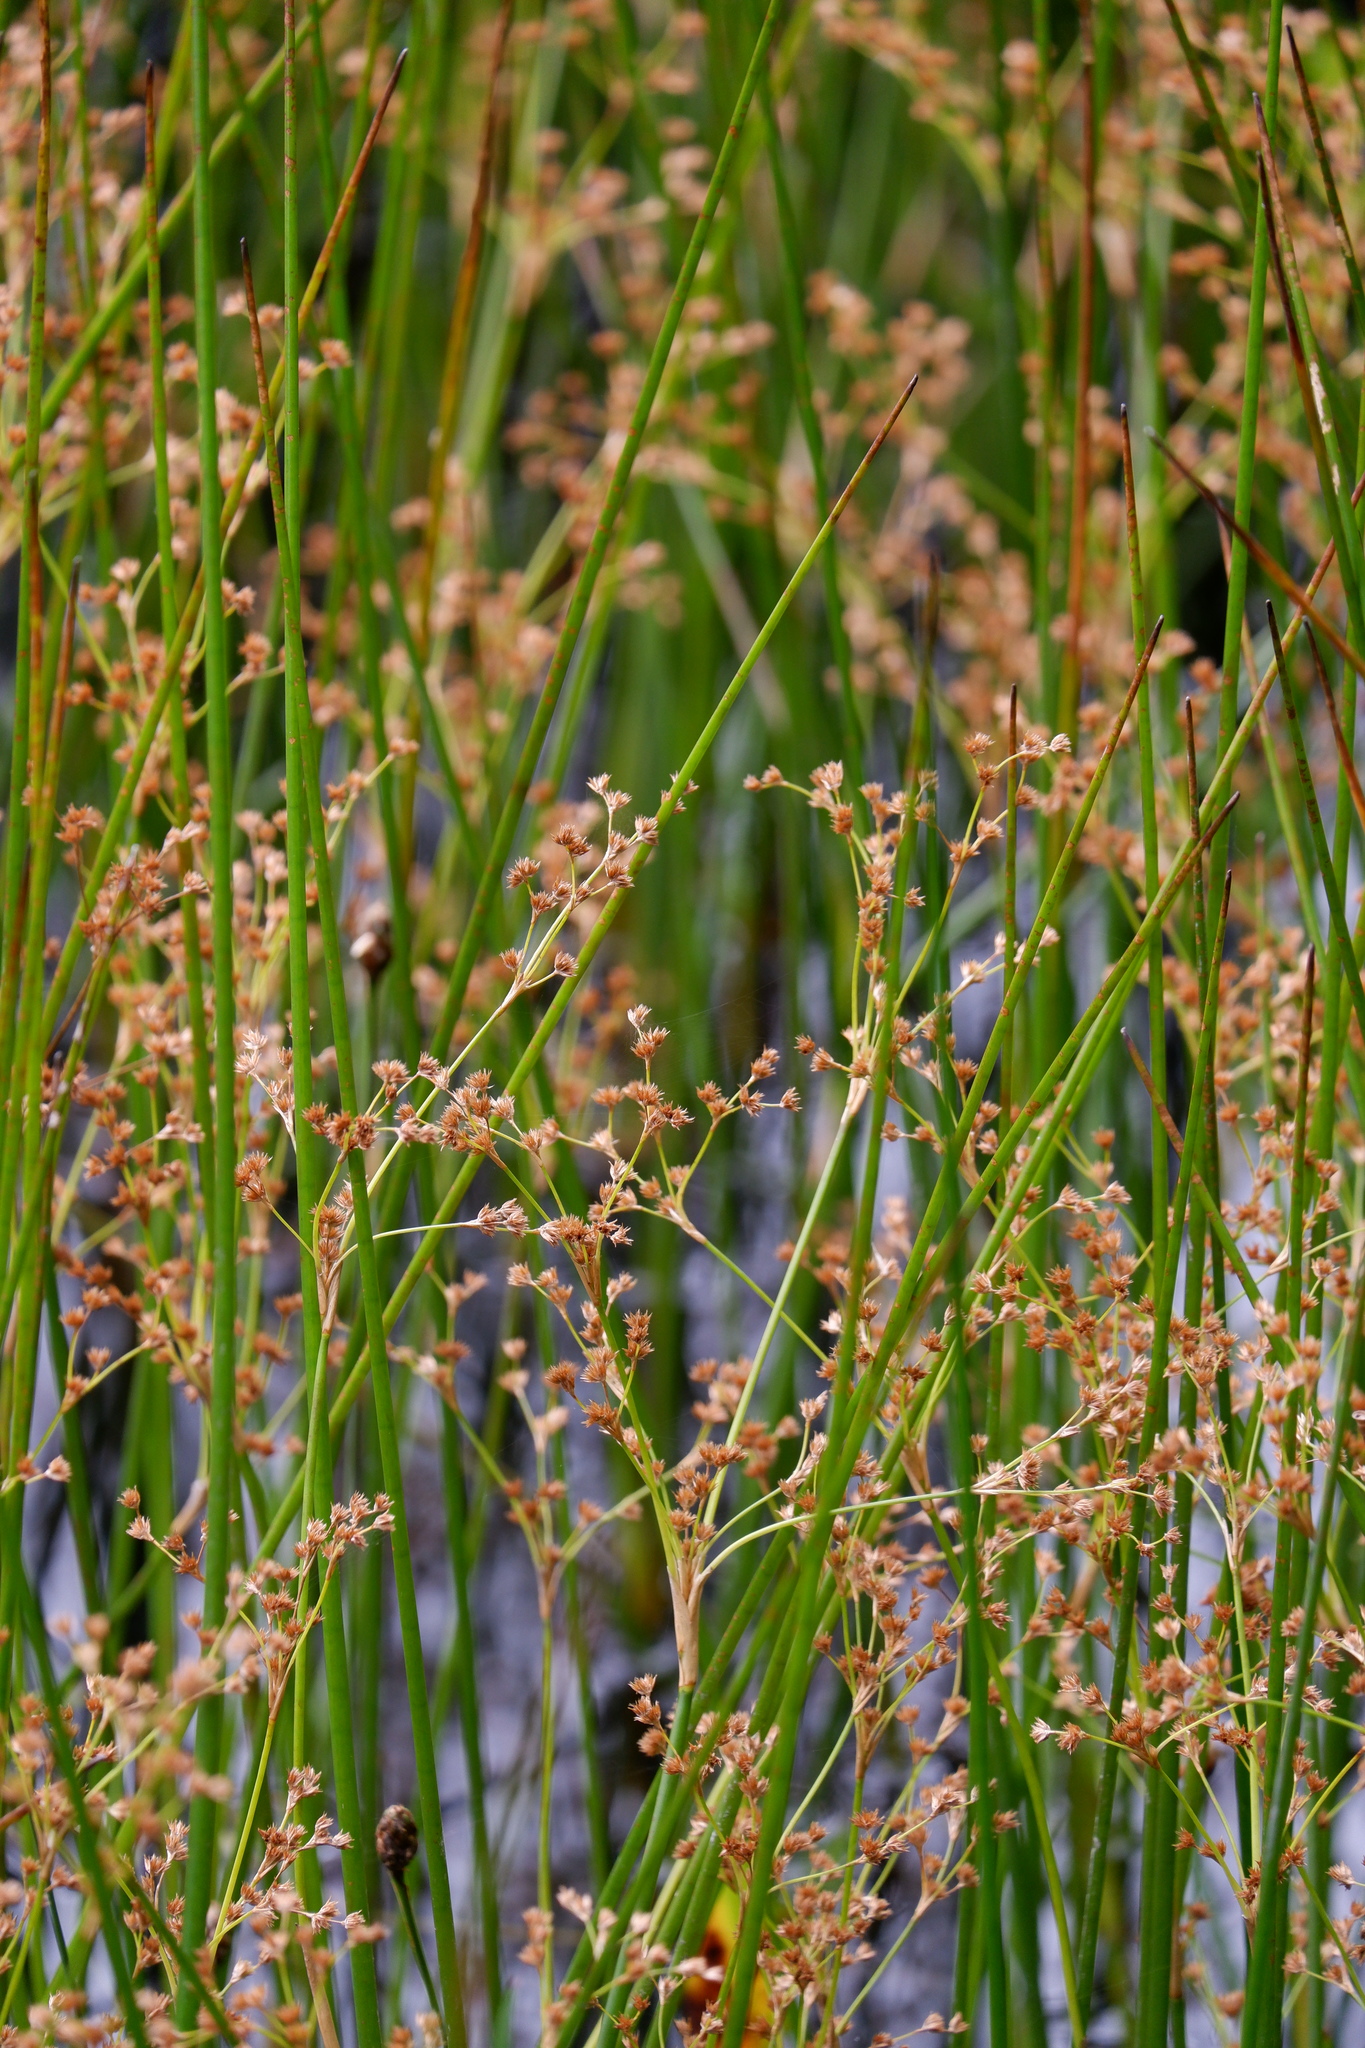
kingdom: Plantae
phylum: Tracheophyta
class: Liliopsida
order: Poales
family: Juncaceae
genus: Juncus
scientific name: Juncus militaris
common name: Bayonet rush
